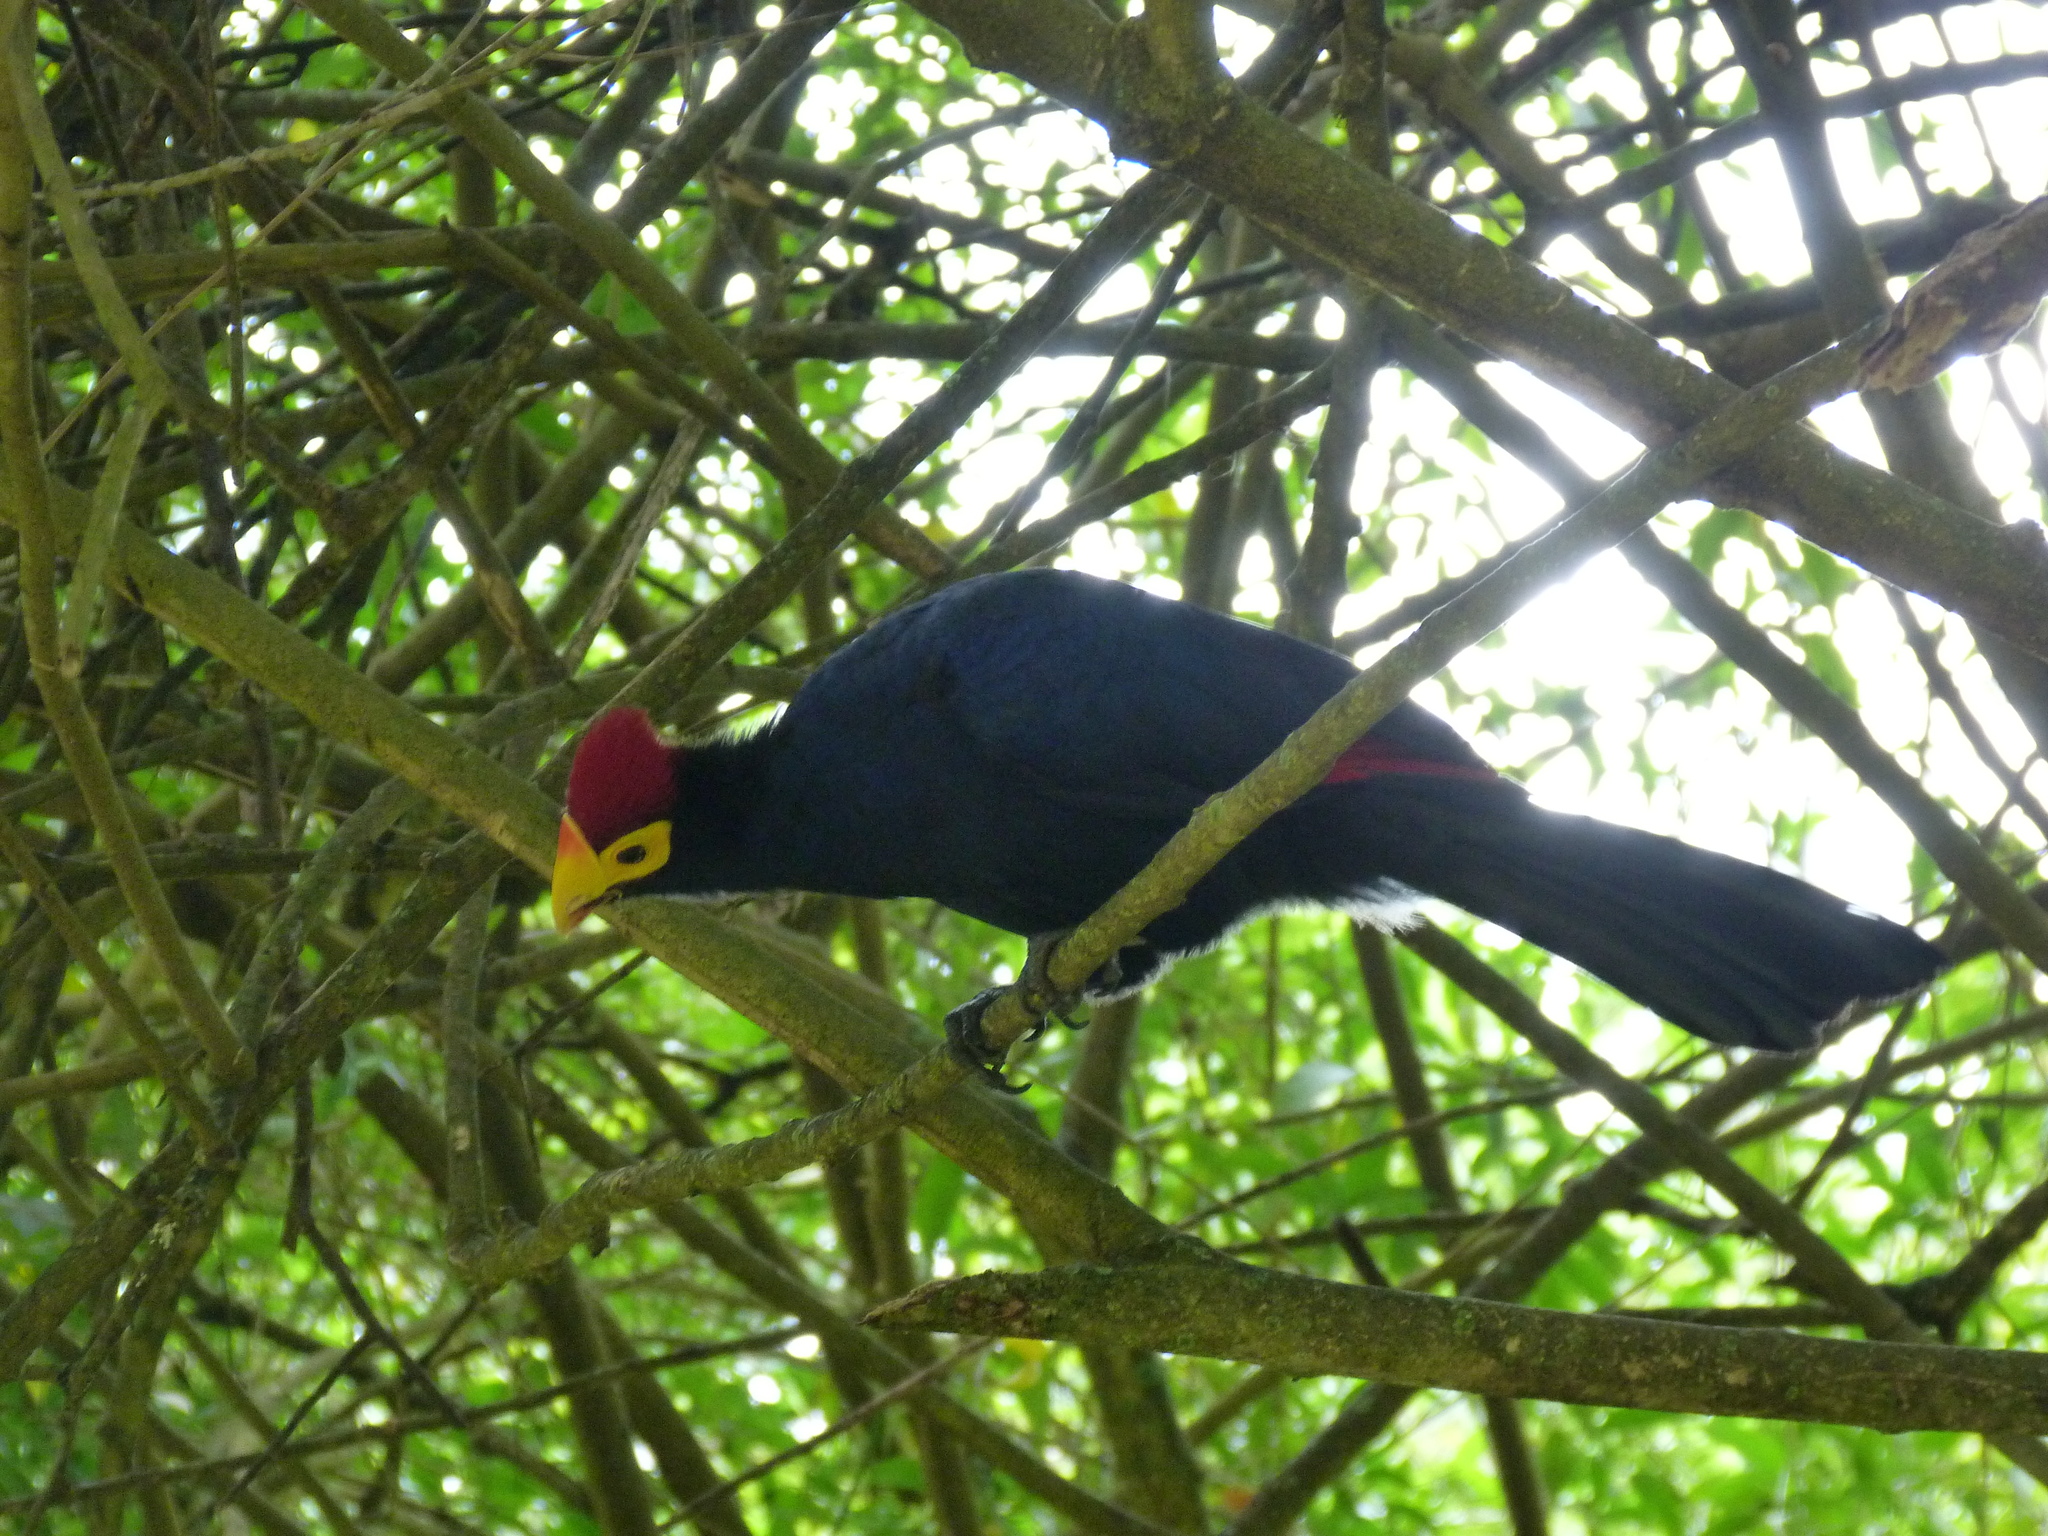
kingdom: Animalia
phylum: Chordata
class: Aves
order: Musophagiformes
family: Musophagidae
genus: Musophaga
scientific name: Musophaga rossae
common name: Ross's turaco
